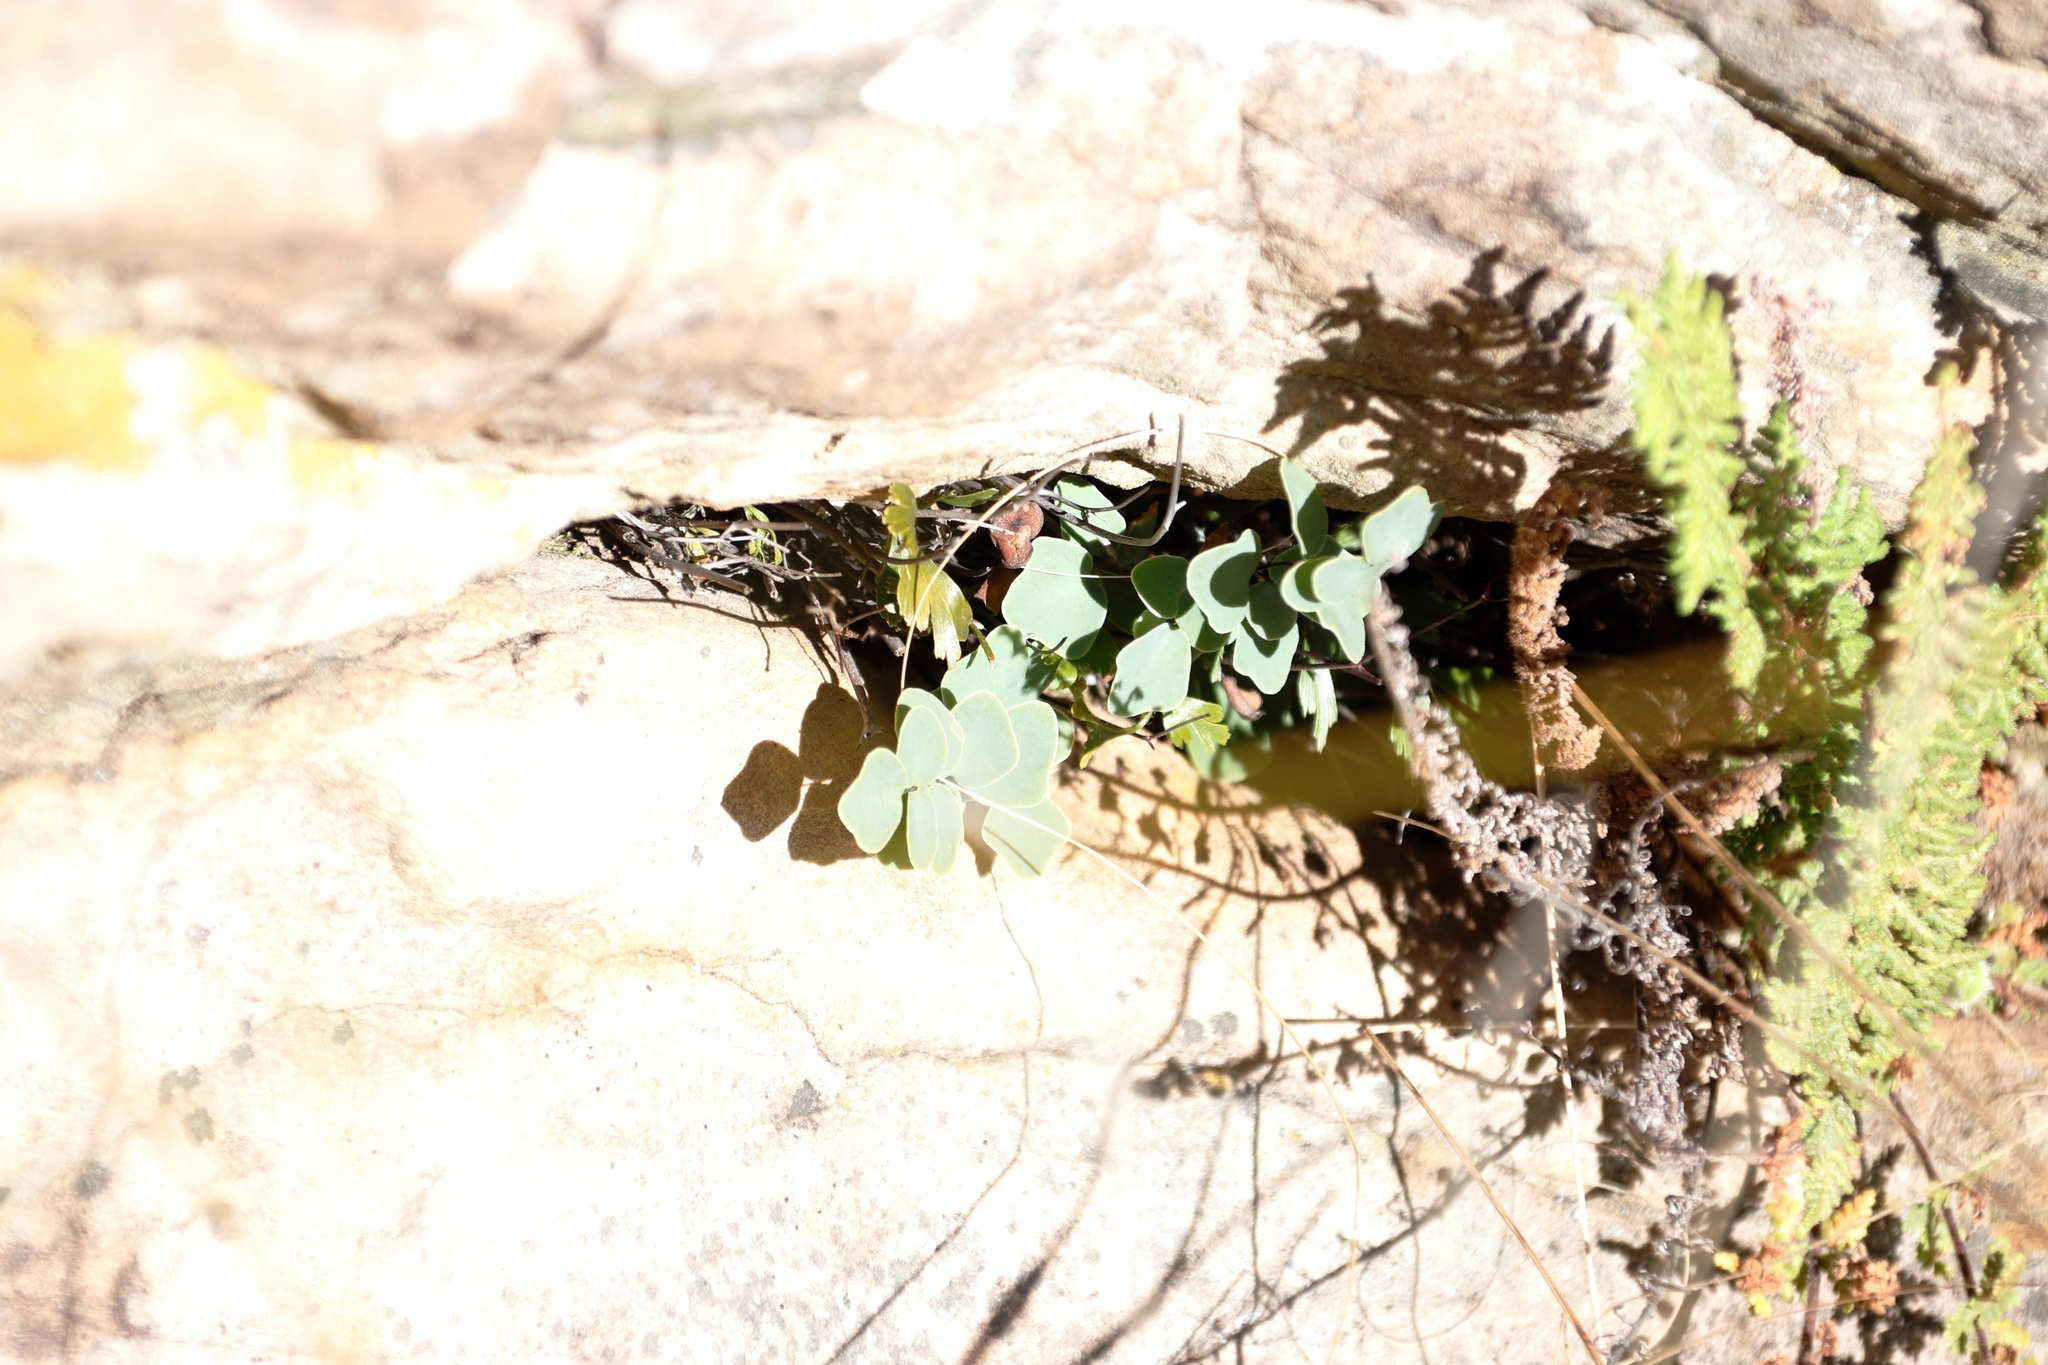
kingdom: Plantae
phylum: Tracheophyta
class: Polypodiopsida
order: Polypodiales
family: Pteridaceae
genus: Pellaea
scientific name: Pellaea calomelanos
